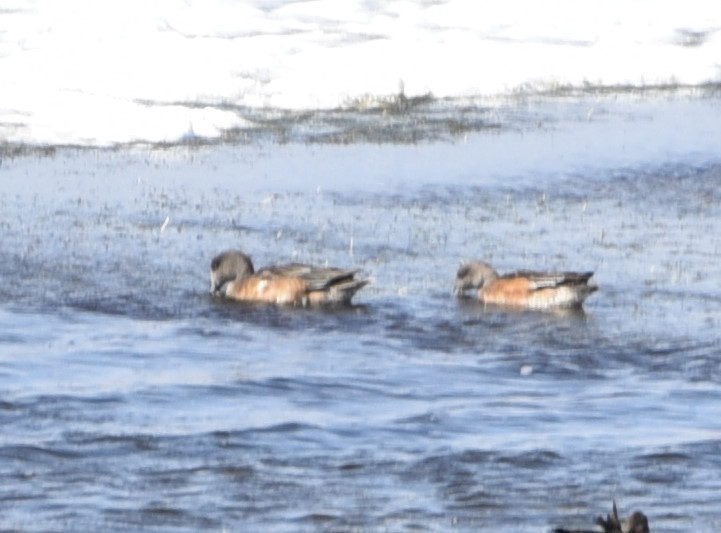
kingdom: Animalia
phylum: Chordata
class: Aves
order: Anseriformes
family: Anatidae
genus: Mareca
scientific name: Mareca americana
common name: American wigeon
